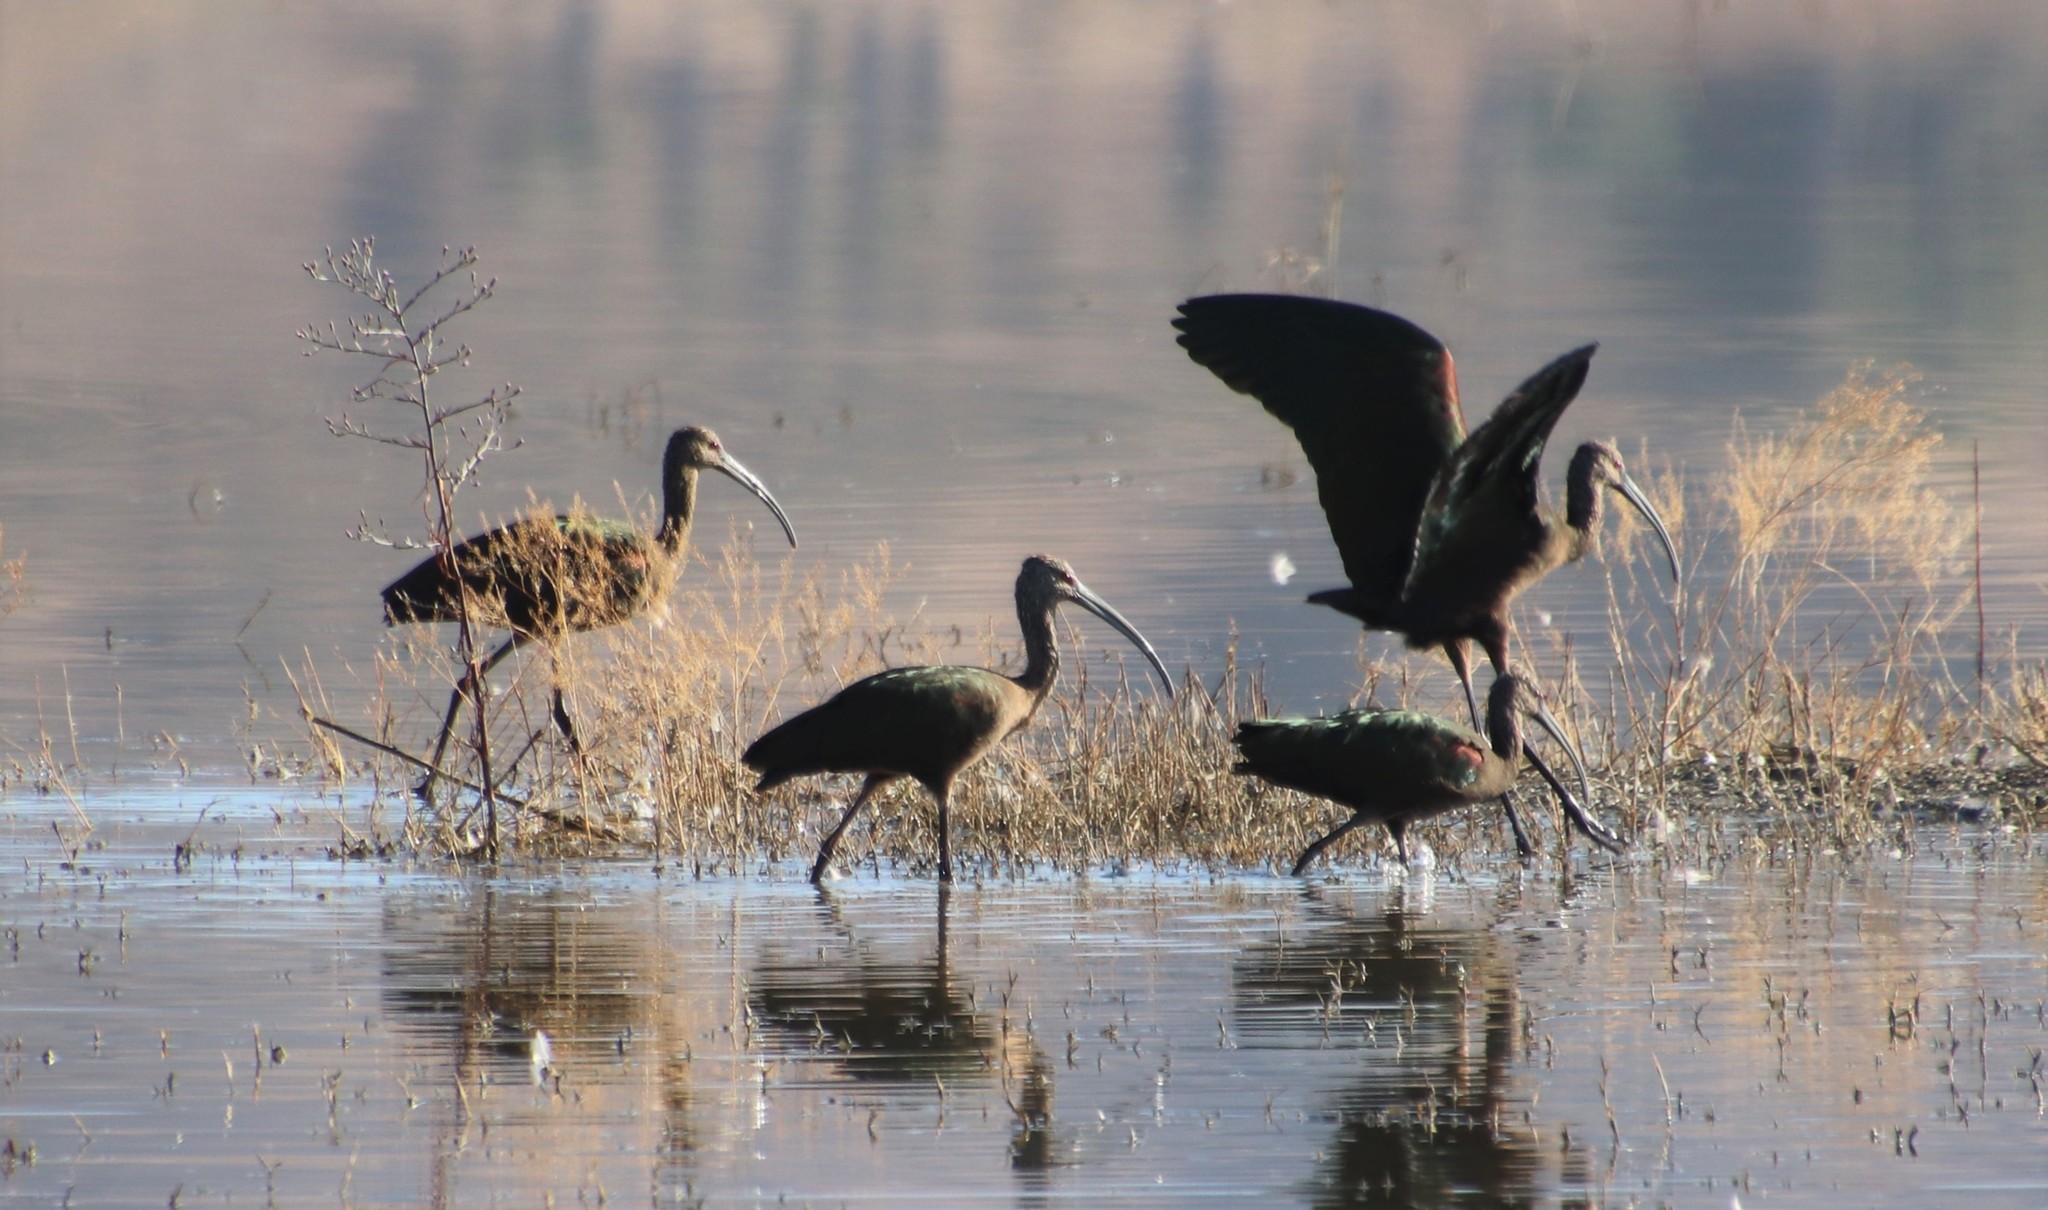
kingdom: Animalia
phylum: Chordata
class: Aves
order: Pelecaniformes
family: Threskiornithidae
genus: Plegadis
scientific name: Plegadis chihi
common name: White-faced ibis
